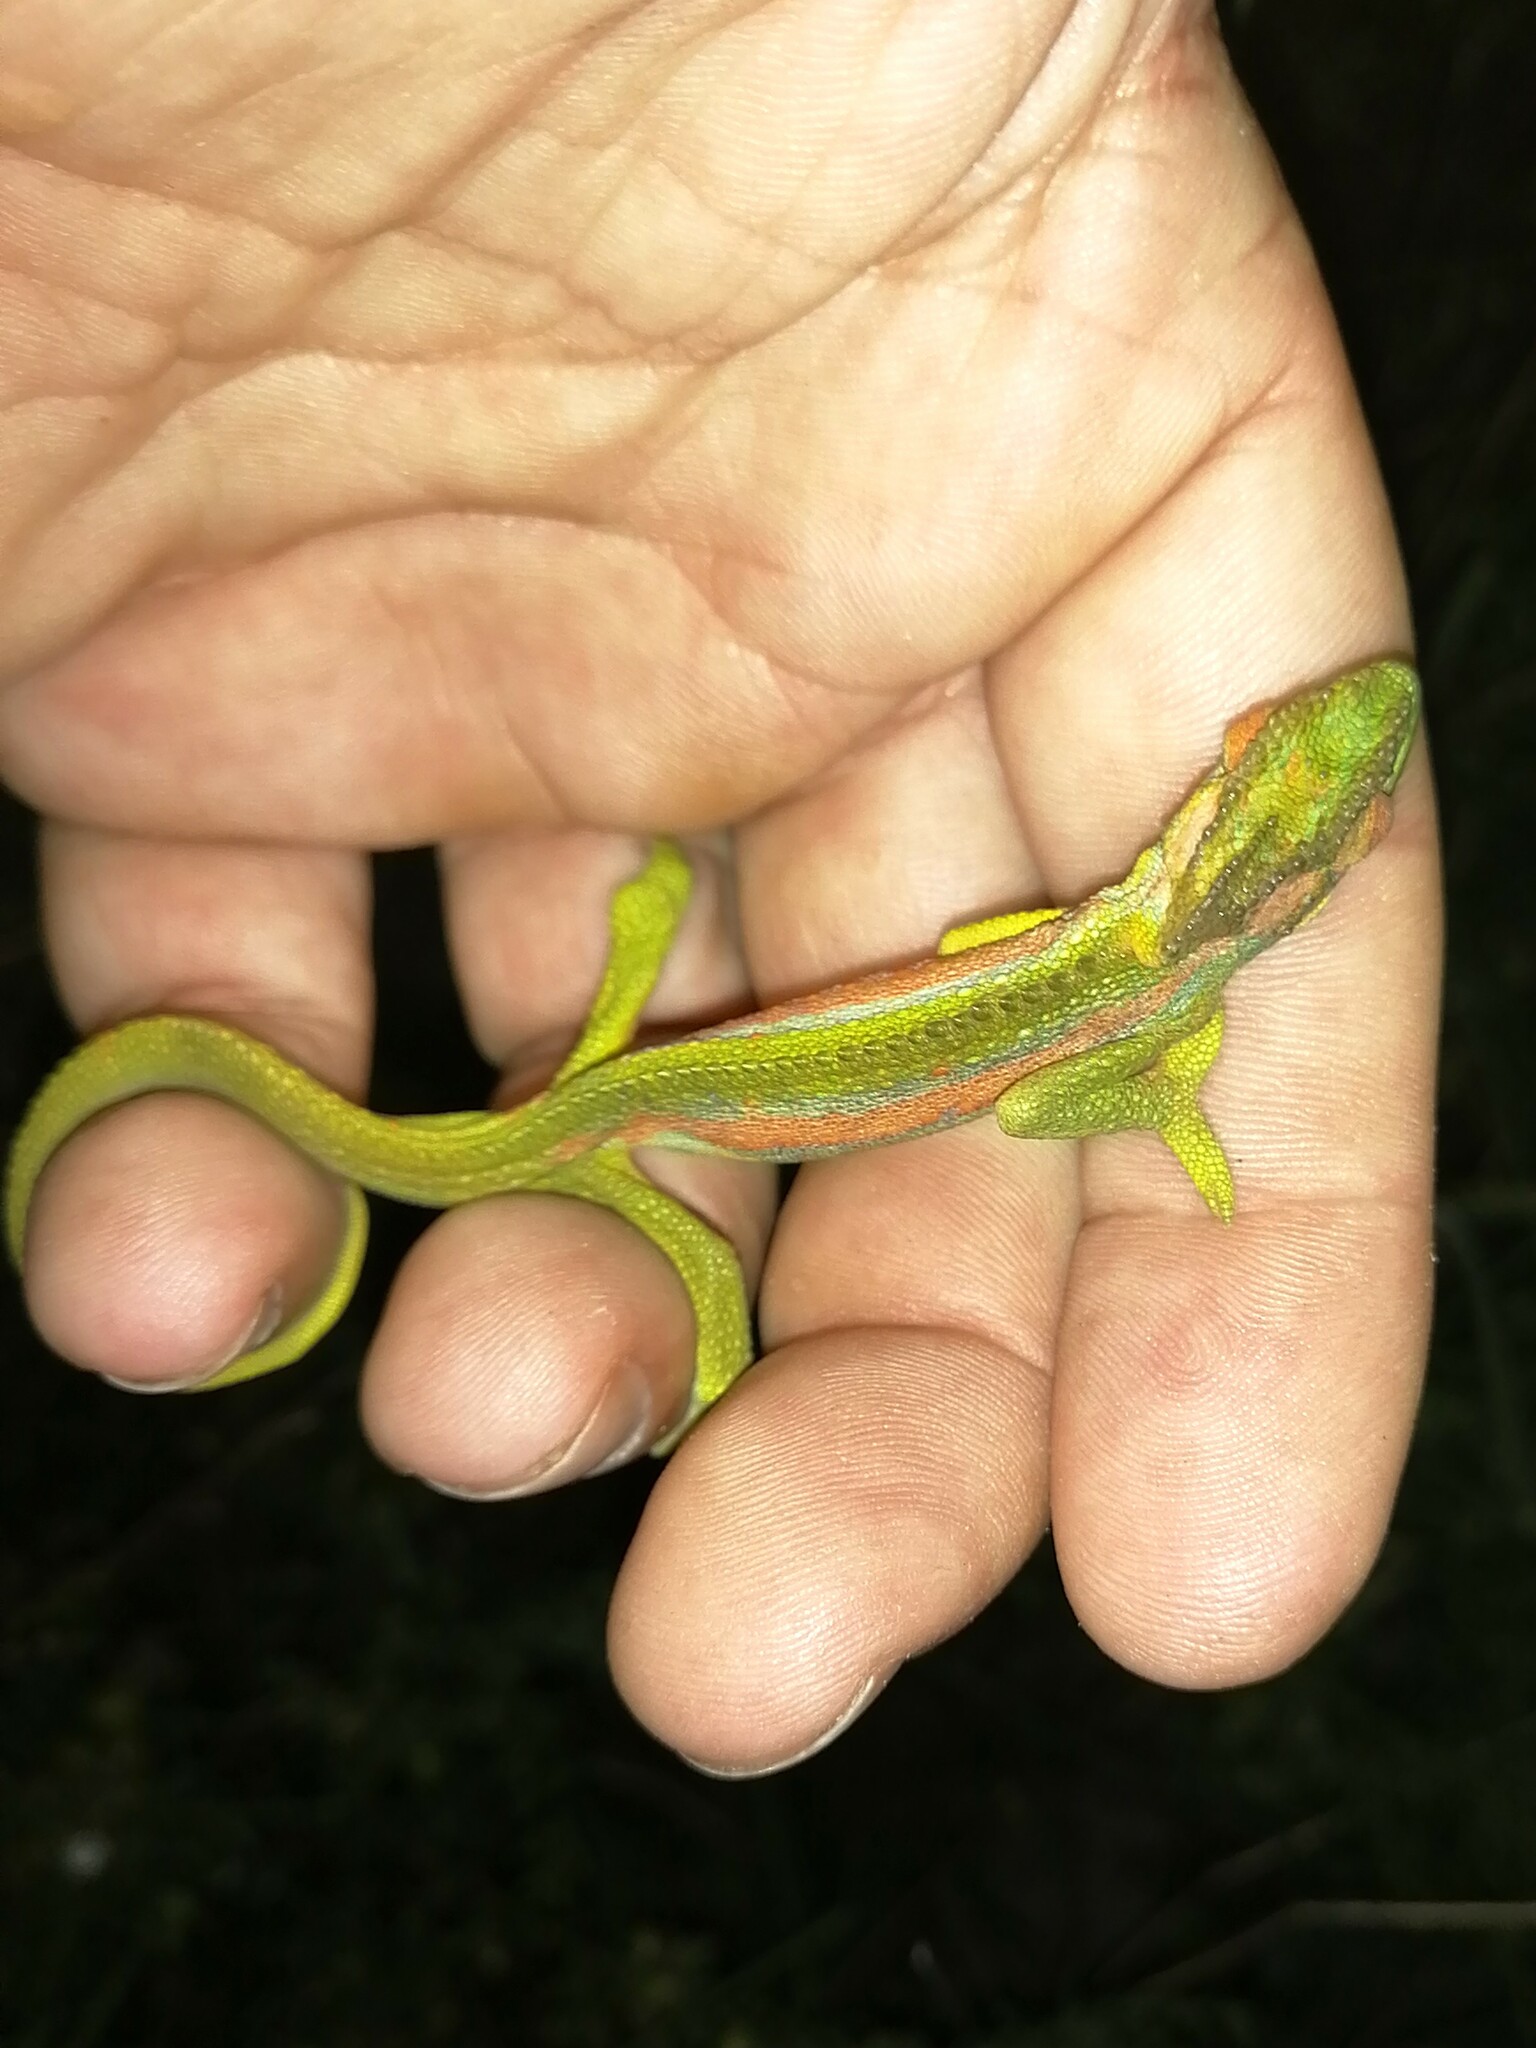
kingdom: Animalia
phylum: Chordata
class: Squamata
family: Chamaeleonidae
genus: Bradypodion
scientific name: Bradypodion pumilum
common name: Cape dwarf chameleon
